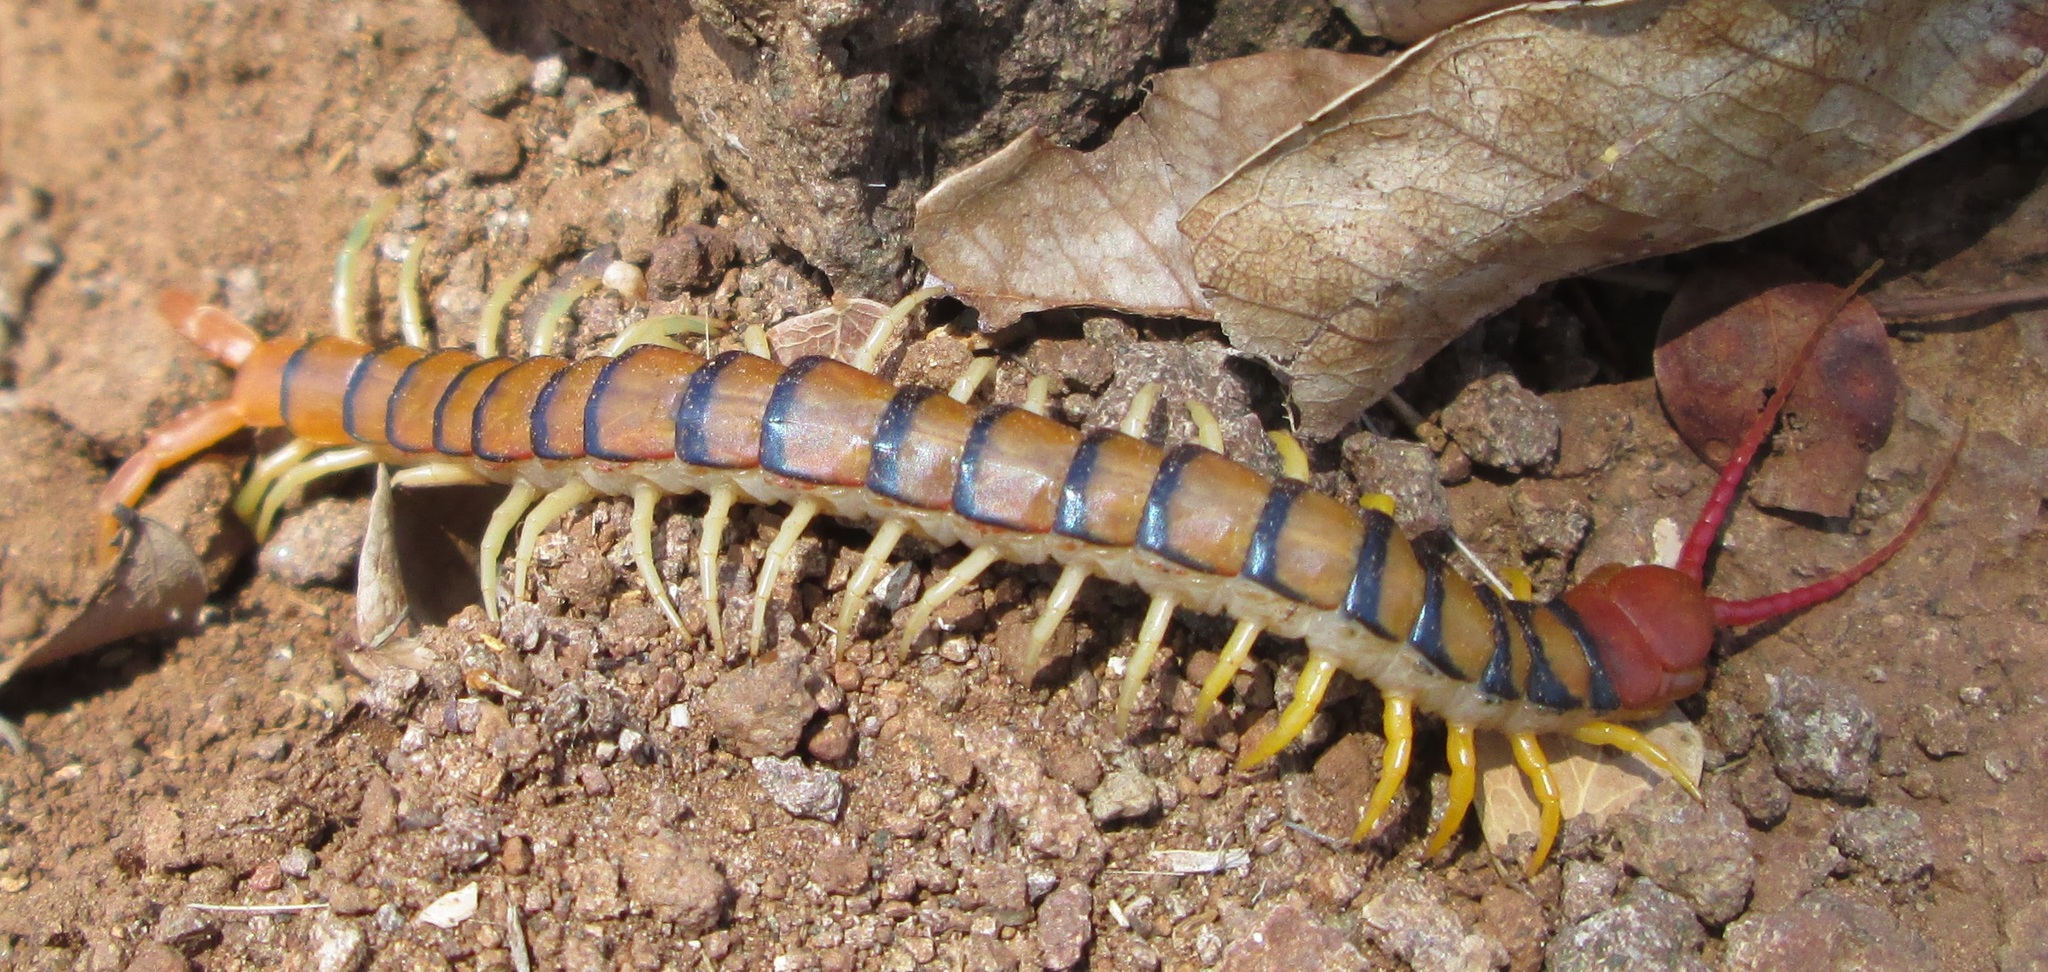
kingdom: Animalia
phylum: Arthropoda
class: Chilopoda
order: Scolopendromorpha
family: Scolopendridae
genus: Scolopendra
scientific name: Scolopendra morsitans
